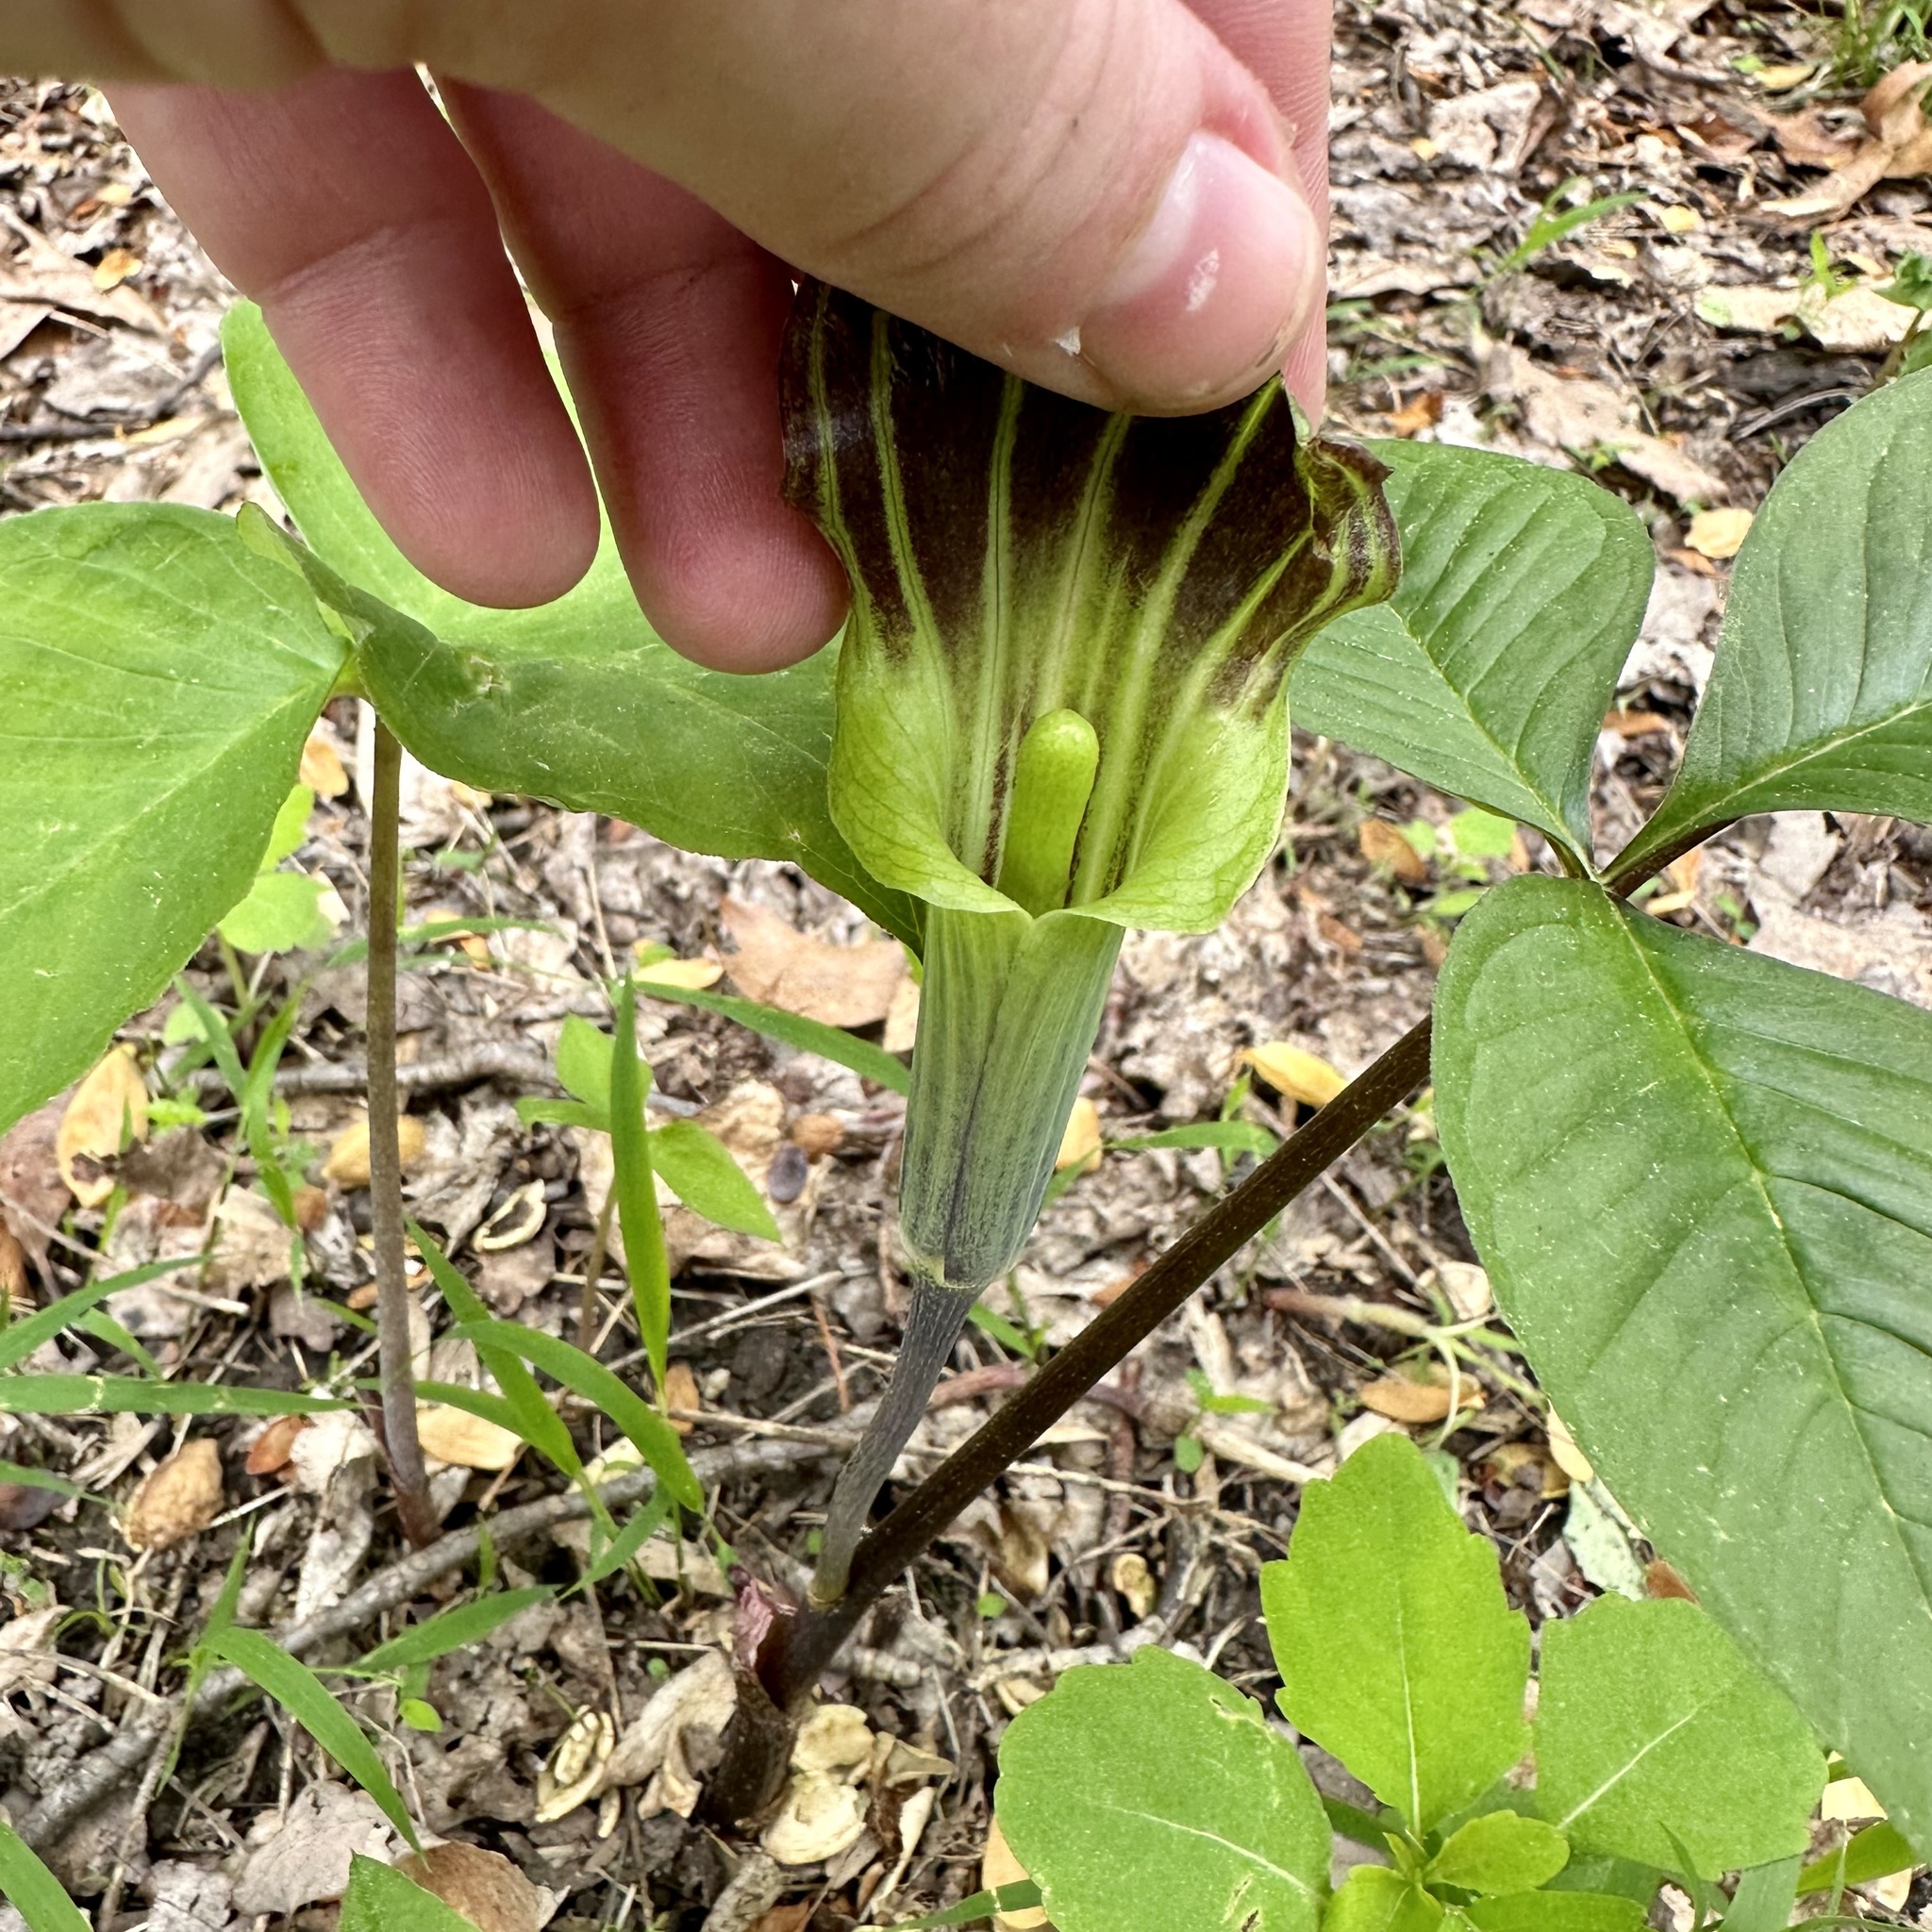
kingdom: Plantae
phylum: Tracheophyta
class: Liliopsida
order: Alismatales
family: Araceae
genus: Arisaema
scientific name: Arisaema triphyllum
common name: Jack-in-the-pulpit
